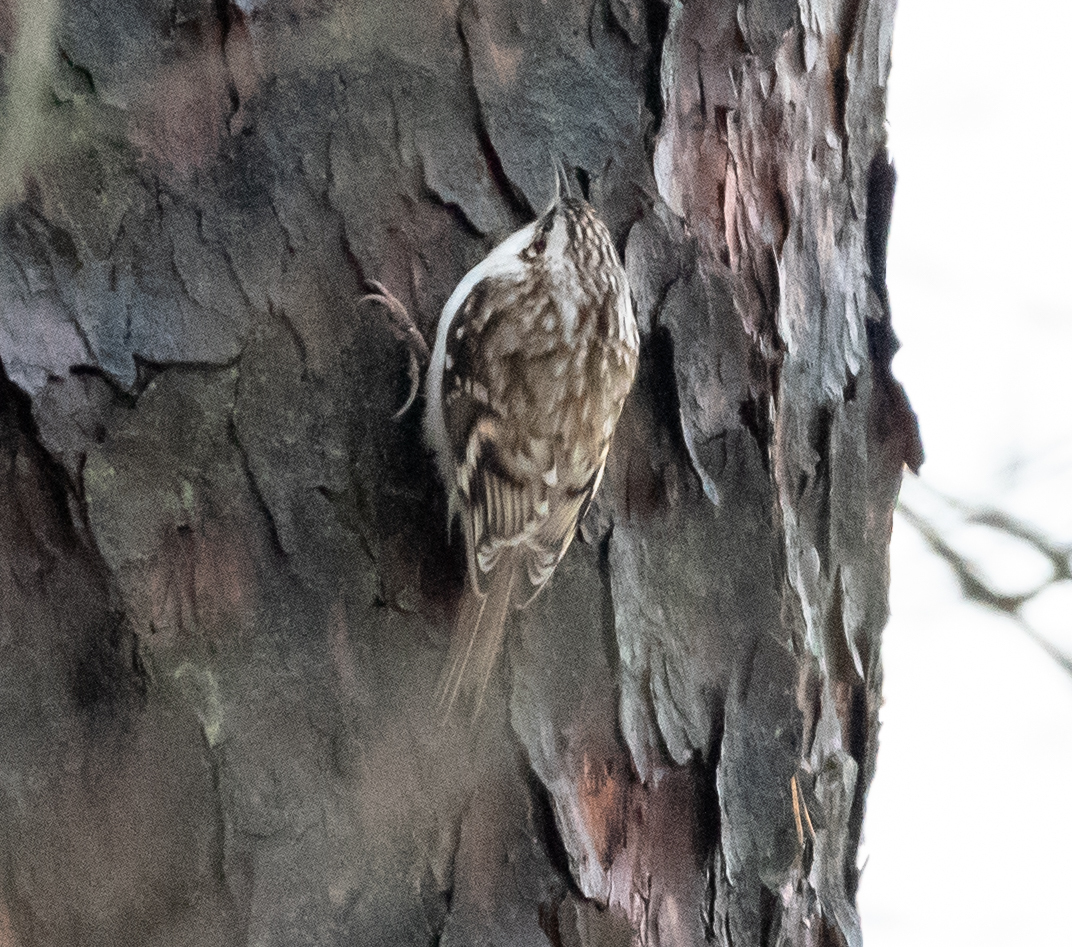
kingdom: Animalia
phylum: Chordata
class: Aves
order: Passeriformes
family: Certhiidae
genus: Certhia
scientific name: Certhia familiaris
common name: Eurasian treecreeper
